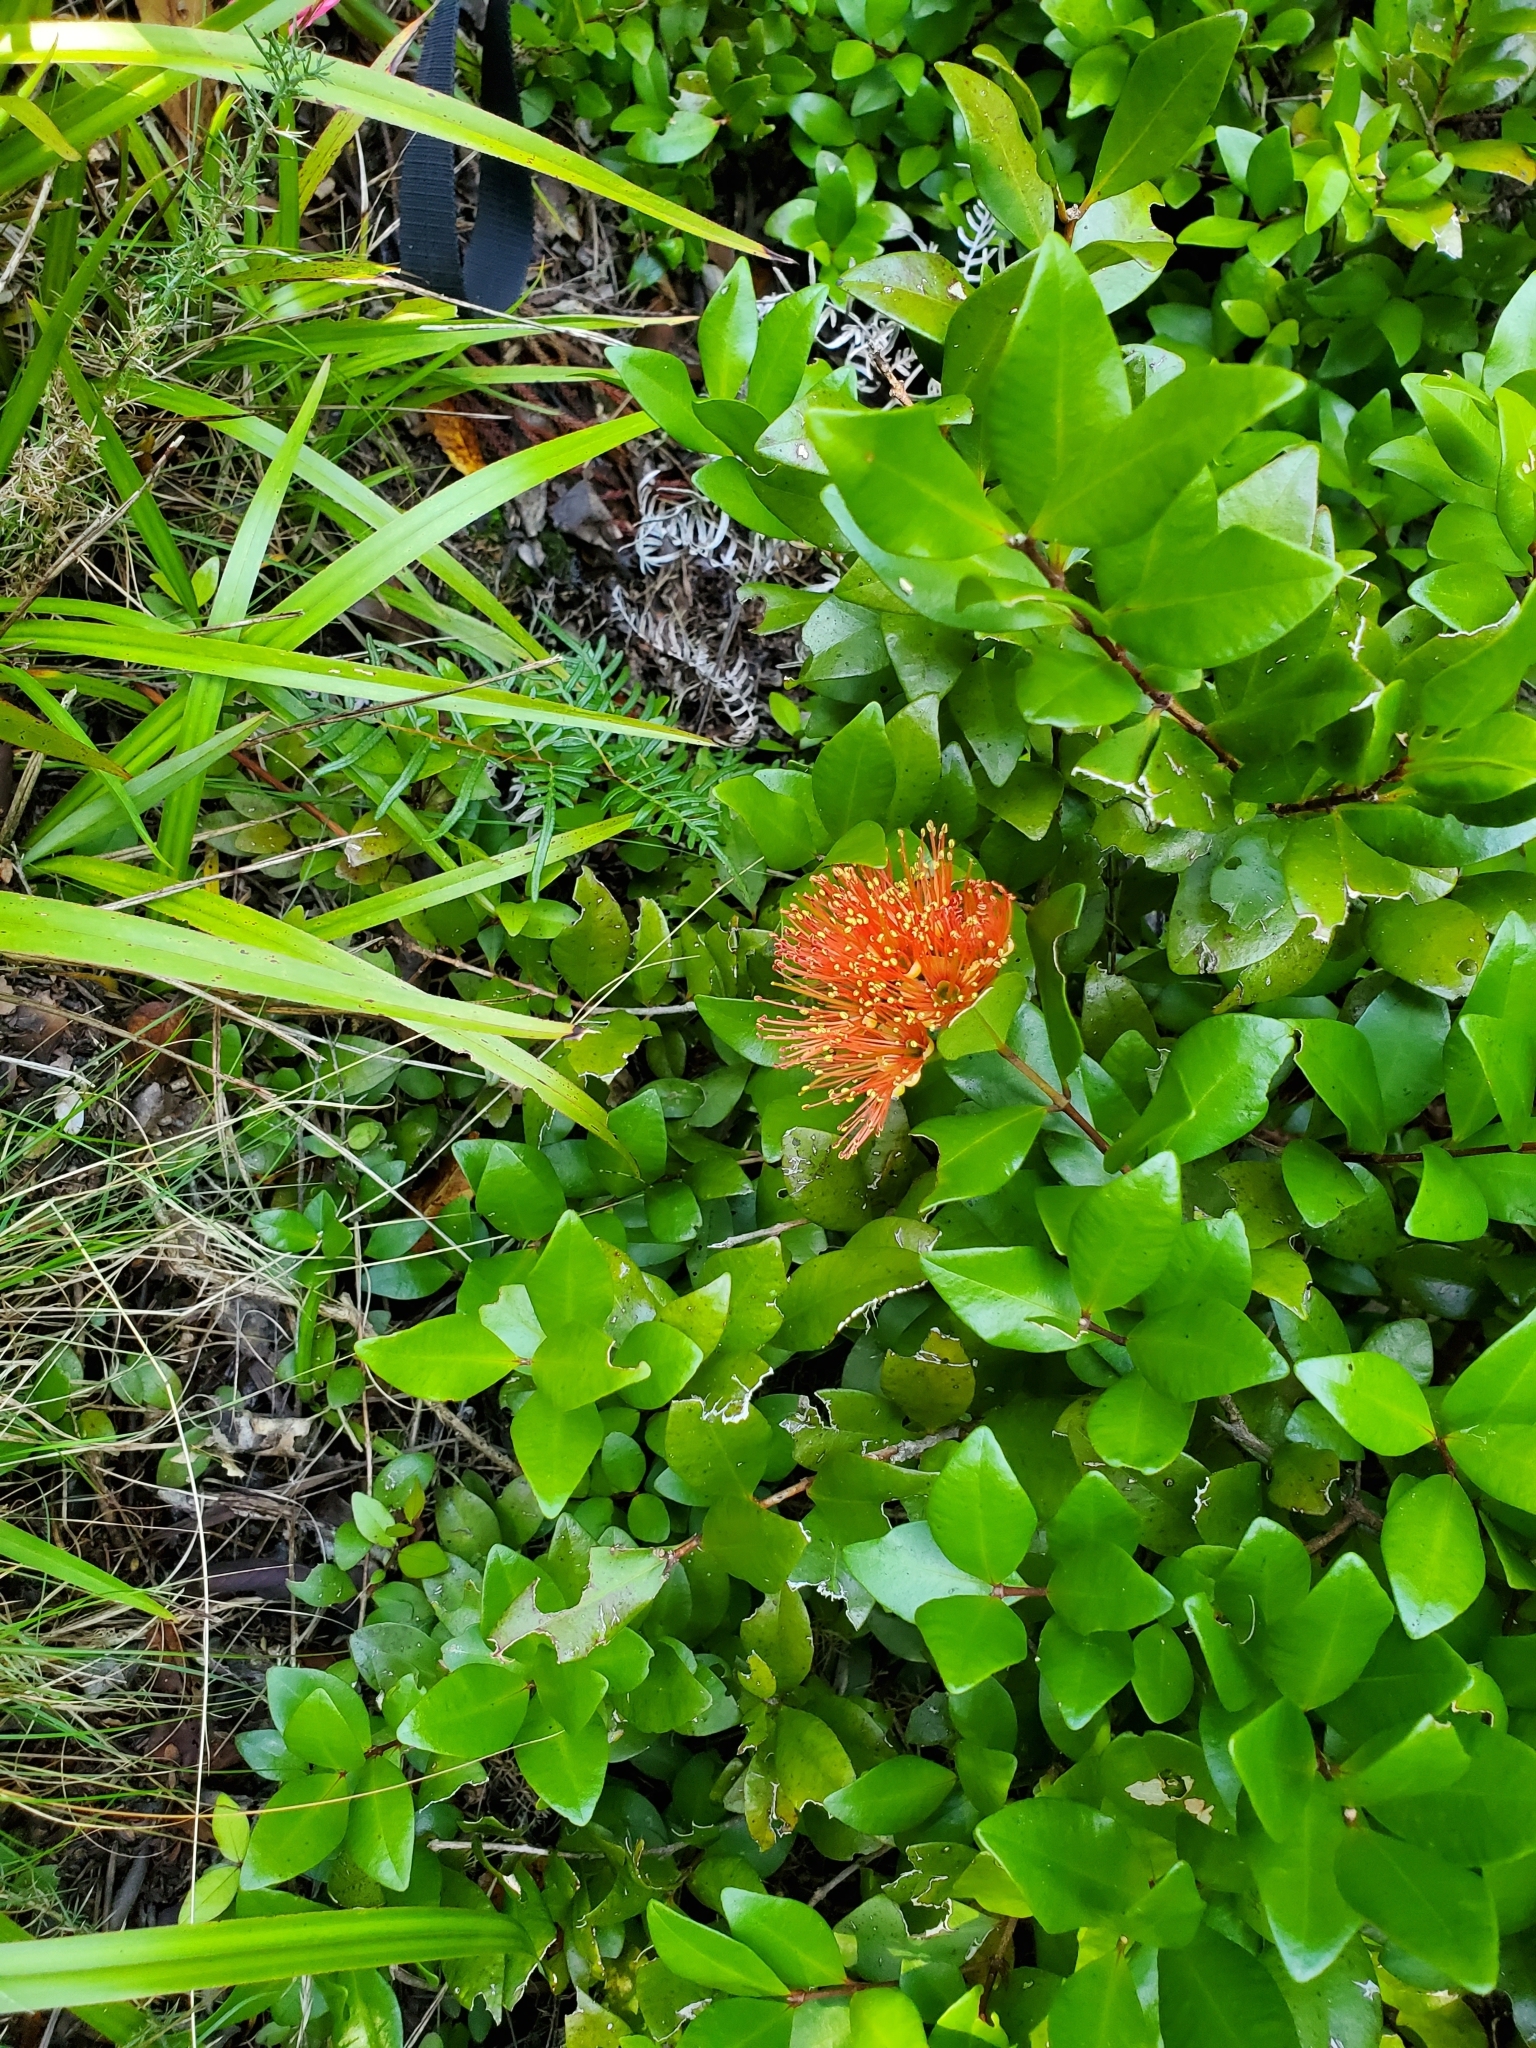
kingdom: Plantae
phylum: Tracheophyta
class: Magnoliopsida
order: Myrtales
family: Myrtaceae
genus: Metrosideros
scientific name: Metrosideros fulgens
